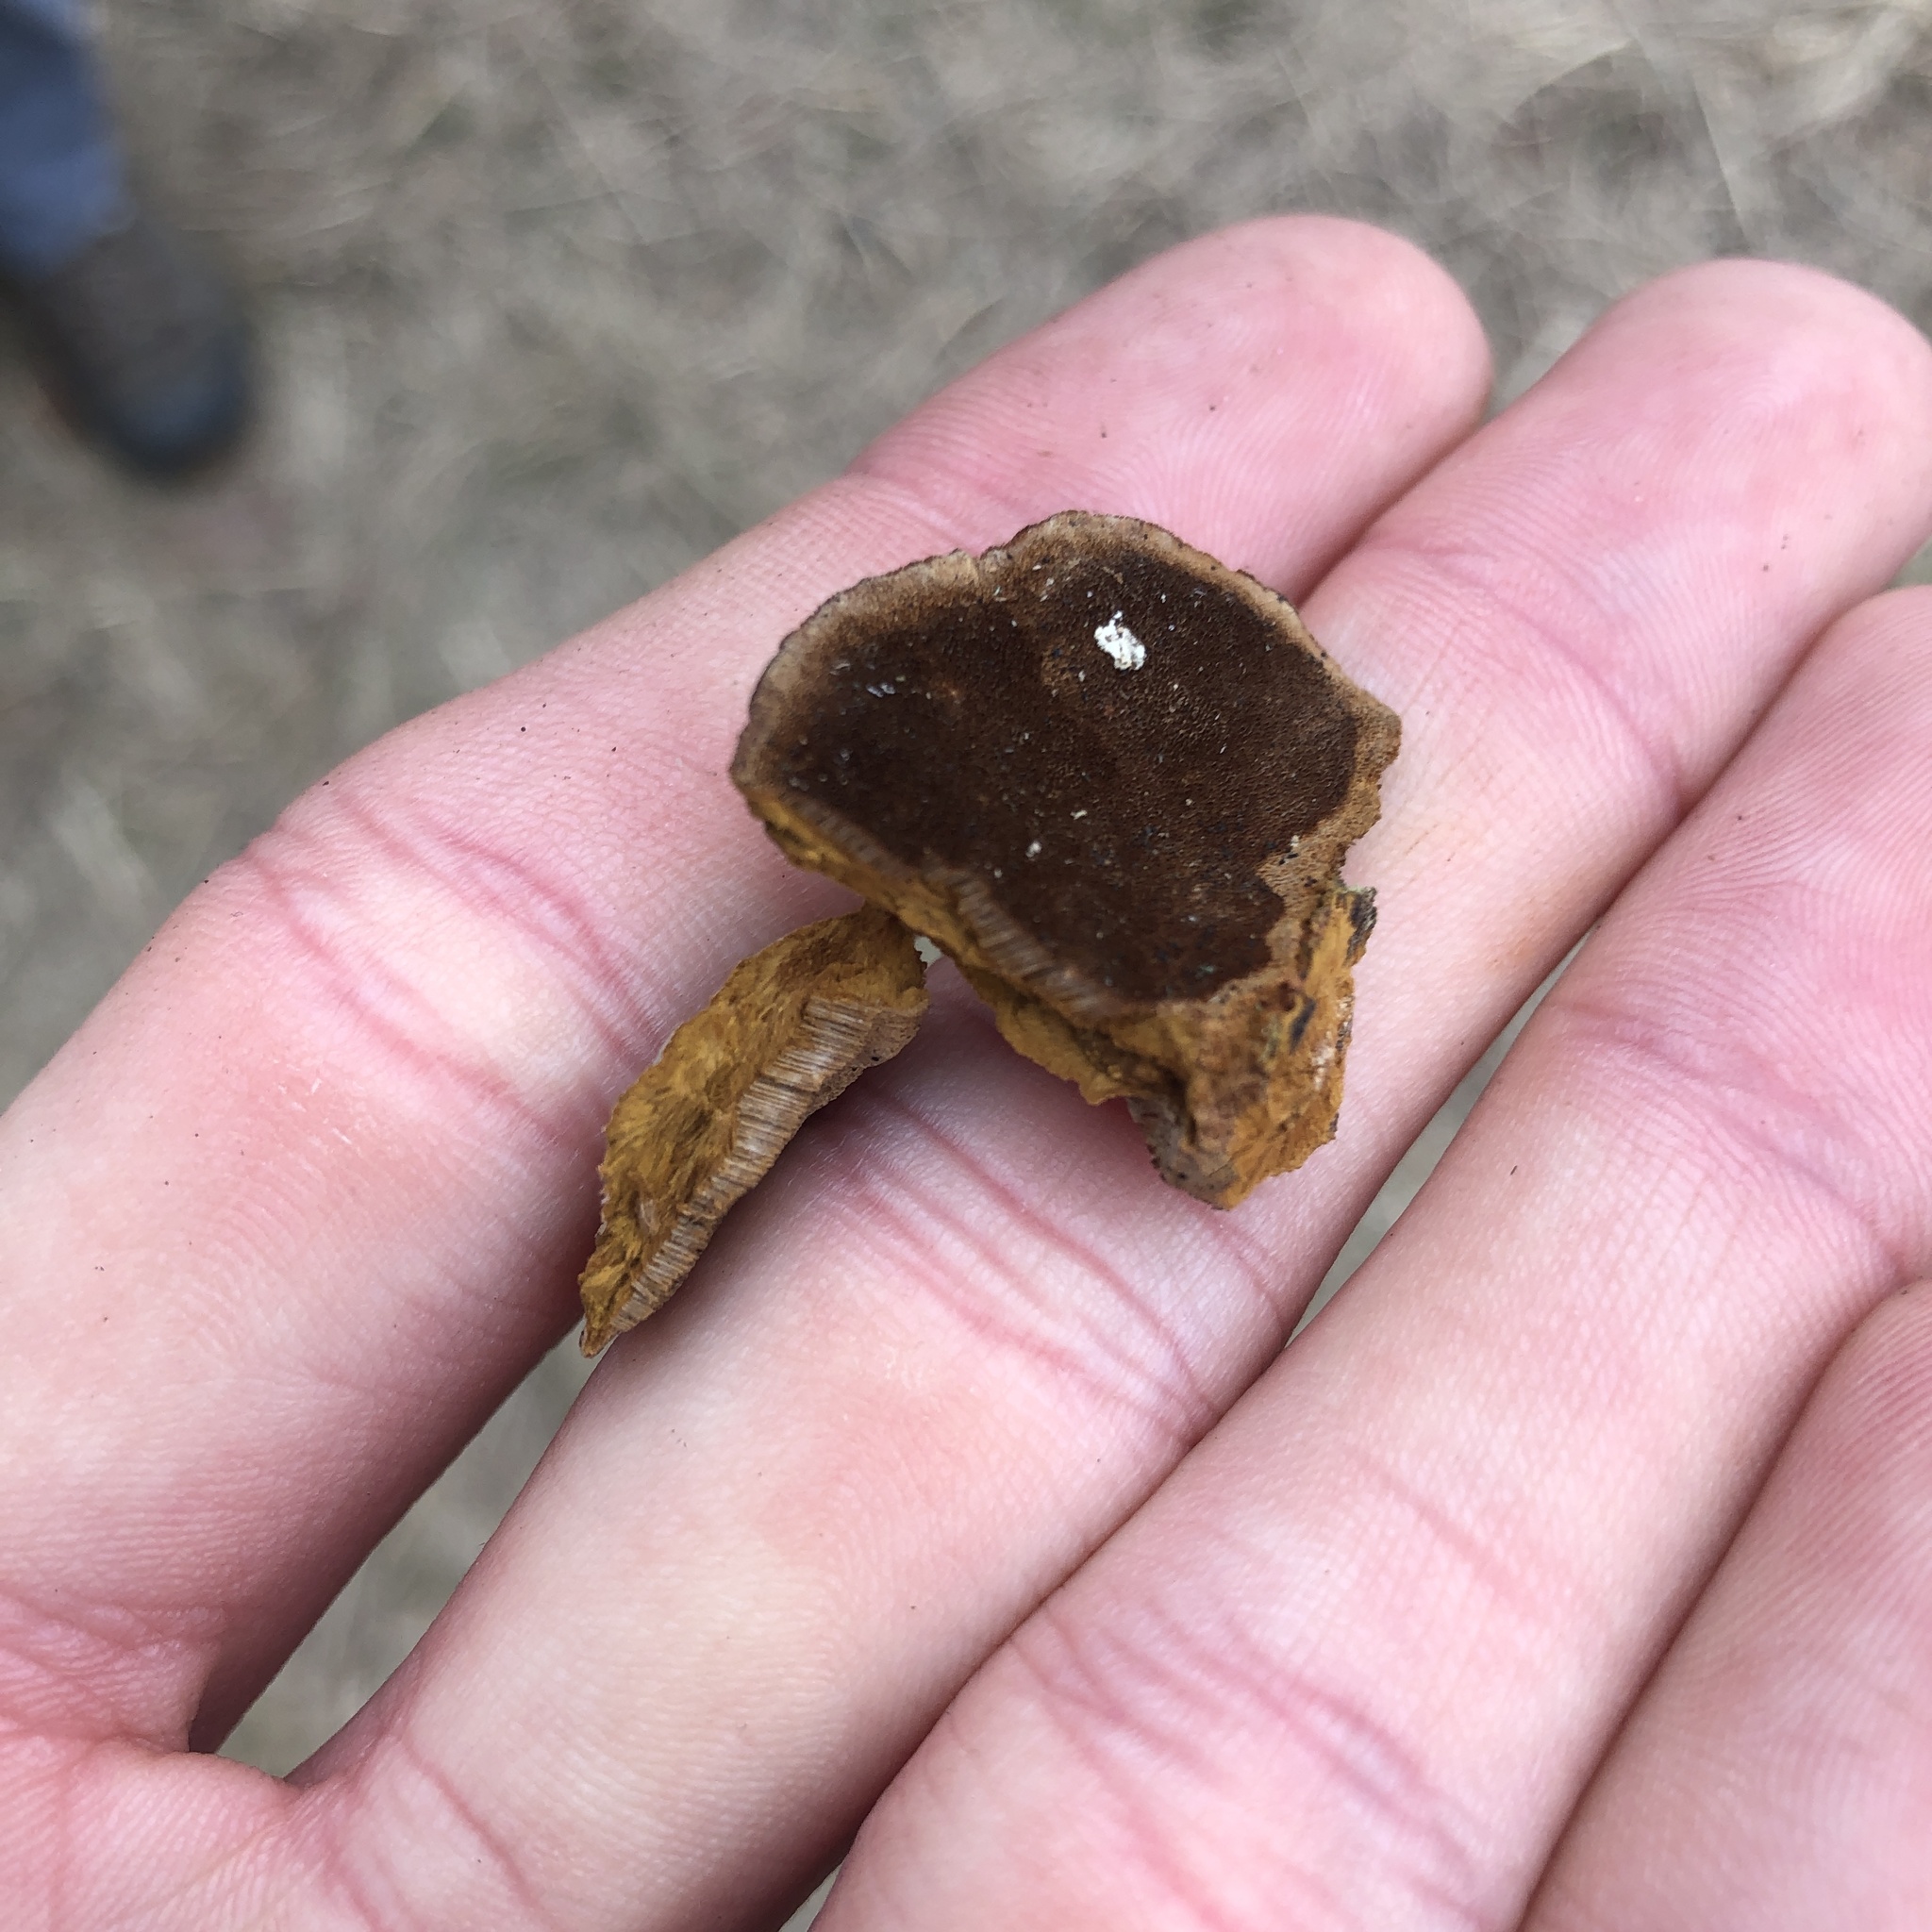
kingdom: Fungi
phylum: Basidiomycota
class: Agaricomycetes
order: Hymenochaetales
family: Hymenochaetaceae
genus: Phellinus
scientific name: Phellinus gilvus
